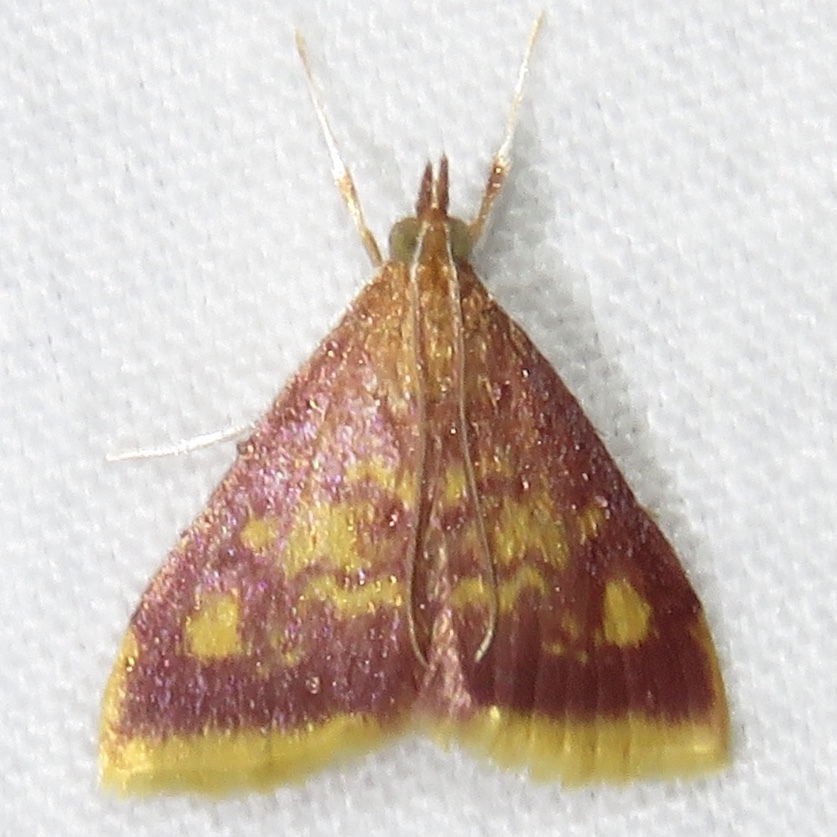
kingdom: Animalia
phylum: Arthropoda
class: Insecta
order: Lepidoptera
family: Crambidae
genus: Pyrausta
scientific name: Pyrausta acrionalis
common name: Mint-loving pyrausta moth
